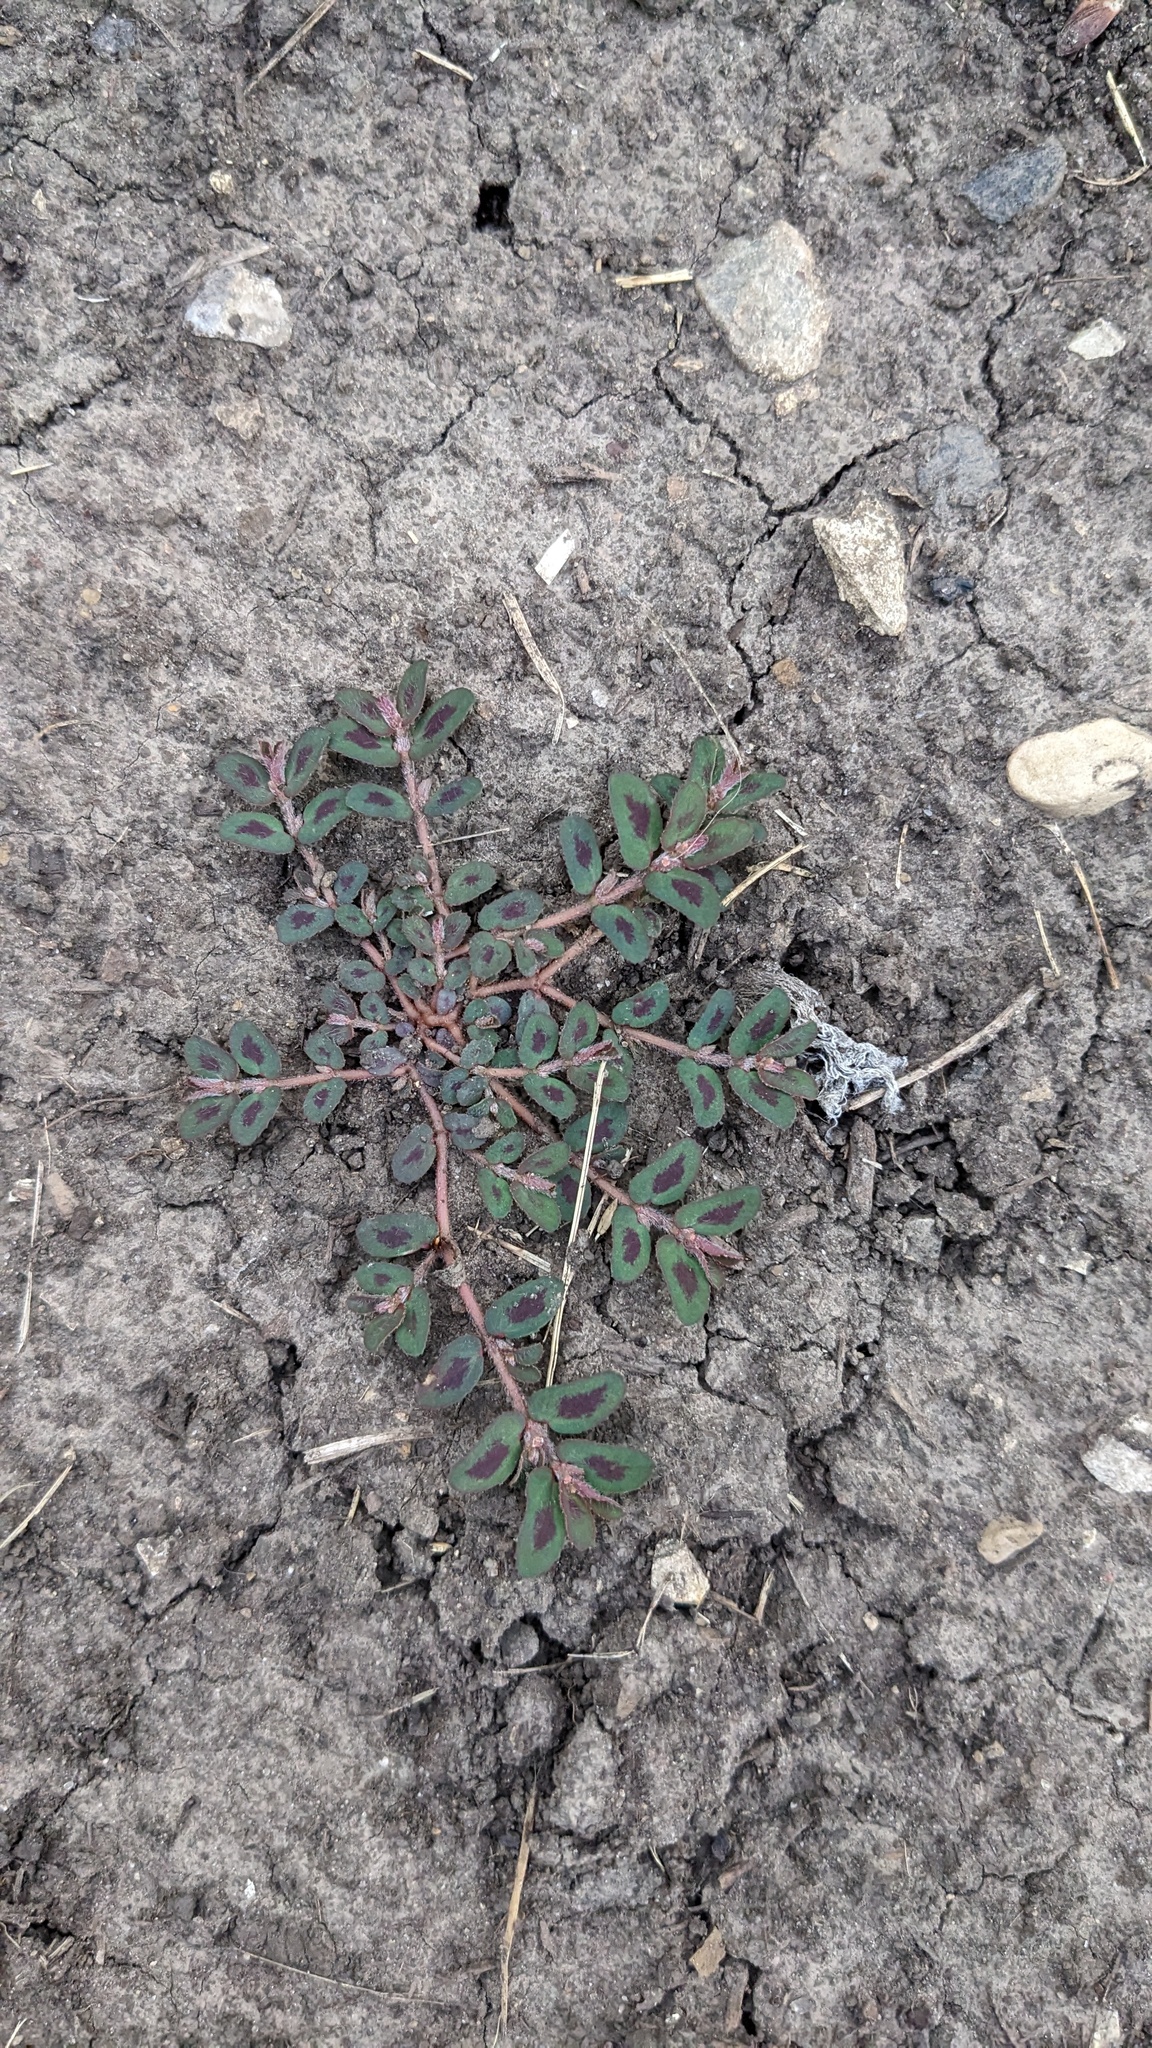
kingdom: Plantae
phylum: Tracheophyta
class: Magnoliopsida
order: Malpighiales
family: Euphorbiaceae
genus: Euphorbia
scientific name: Euphorbia maculata
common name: Spotted spurge
